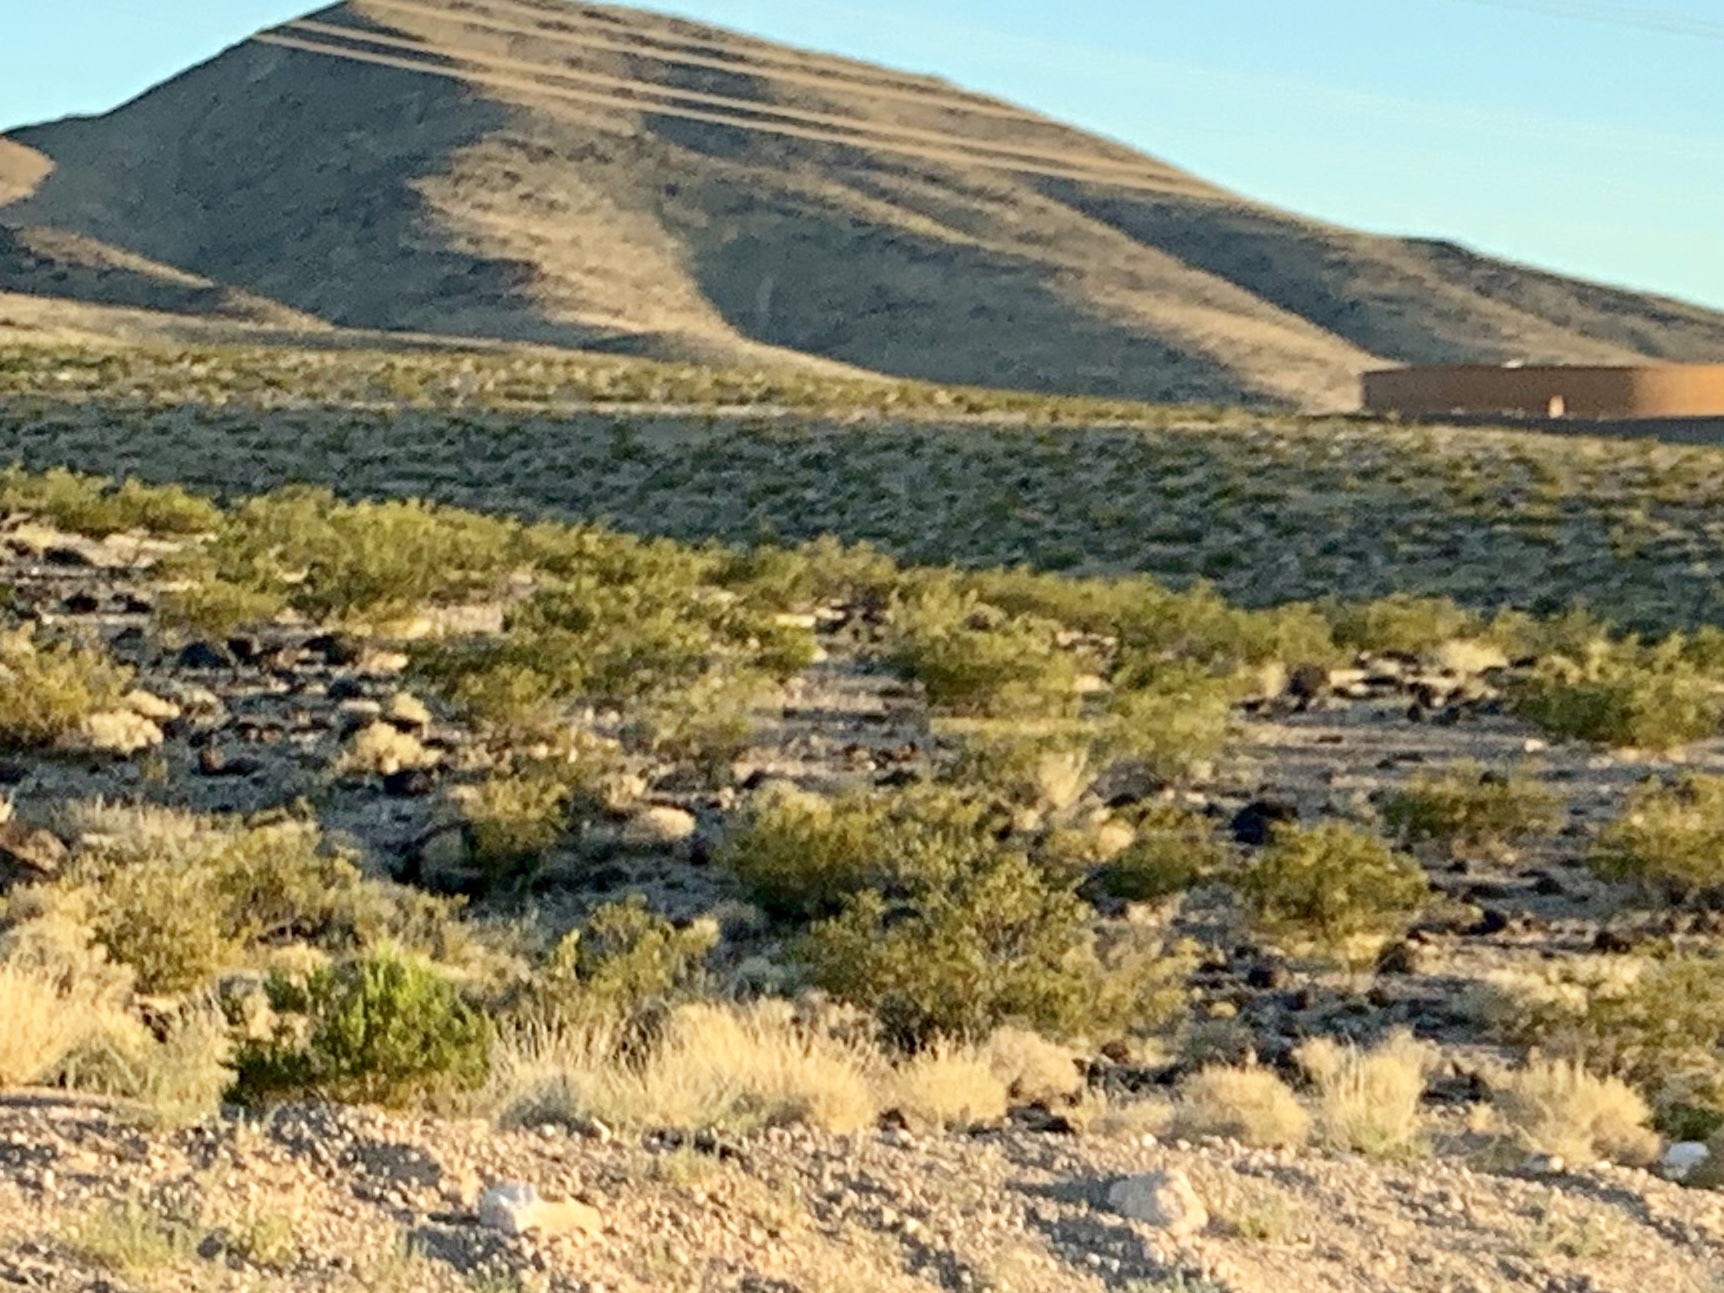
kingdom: Plantae
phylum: Tracheophyta
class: Magnoliopsida
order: Zygophyllales
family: Zygophyllaceae
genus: Larrea
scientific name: Larrea tridentata
